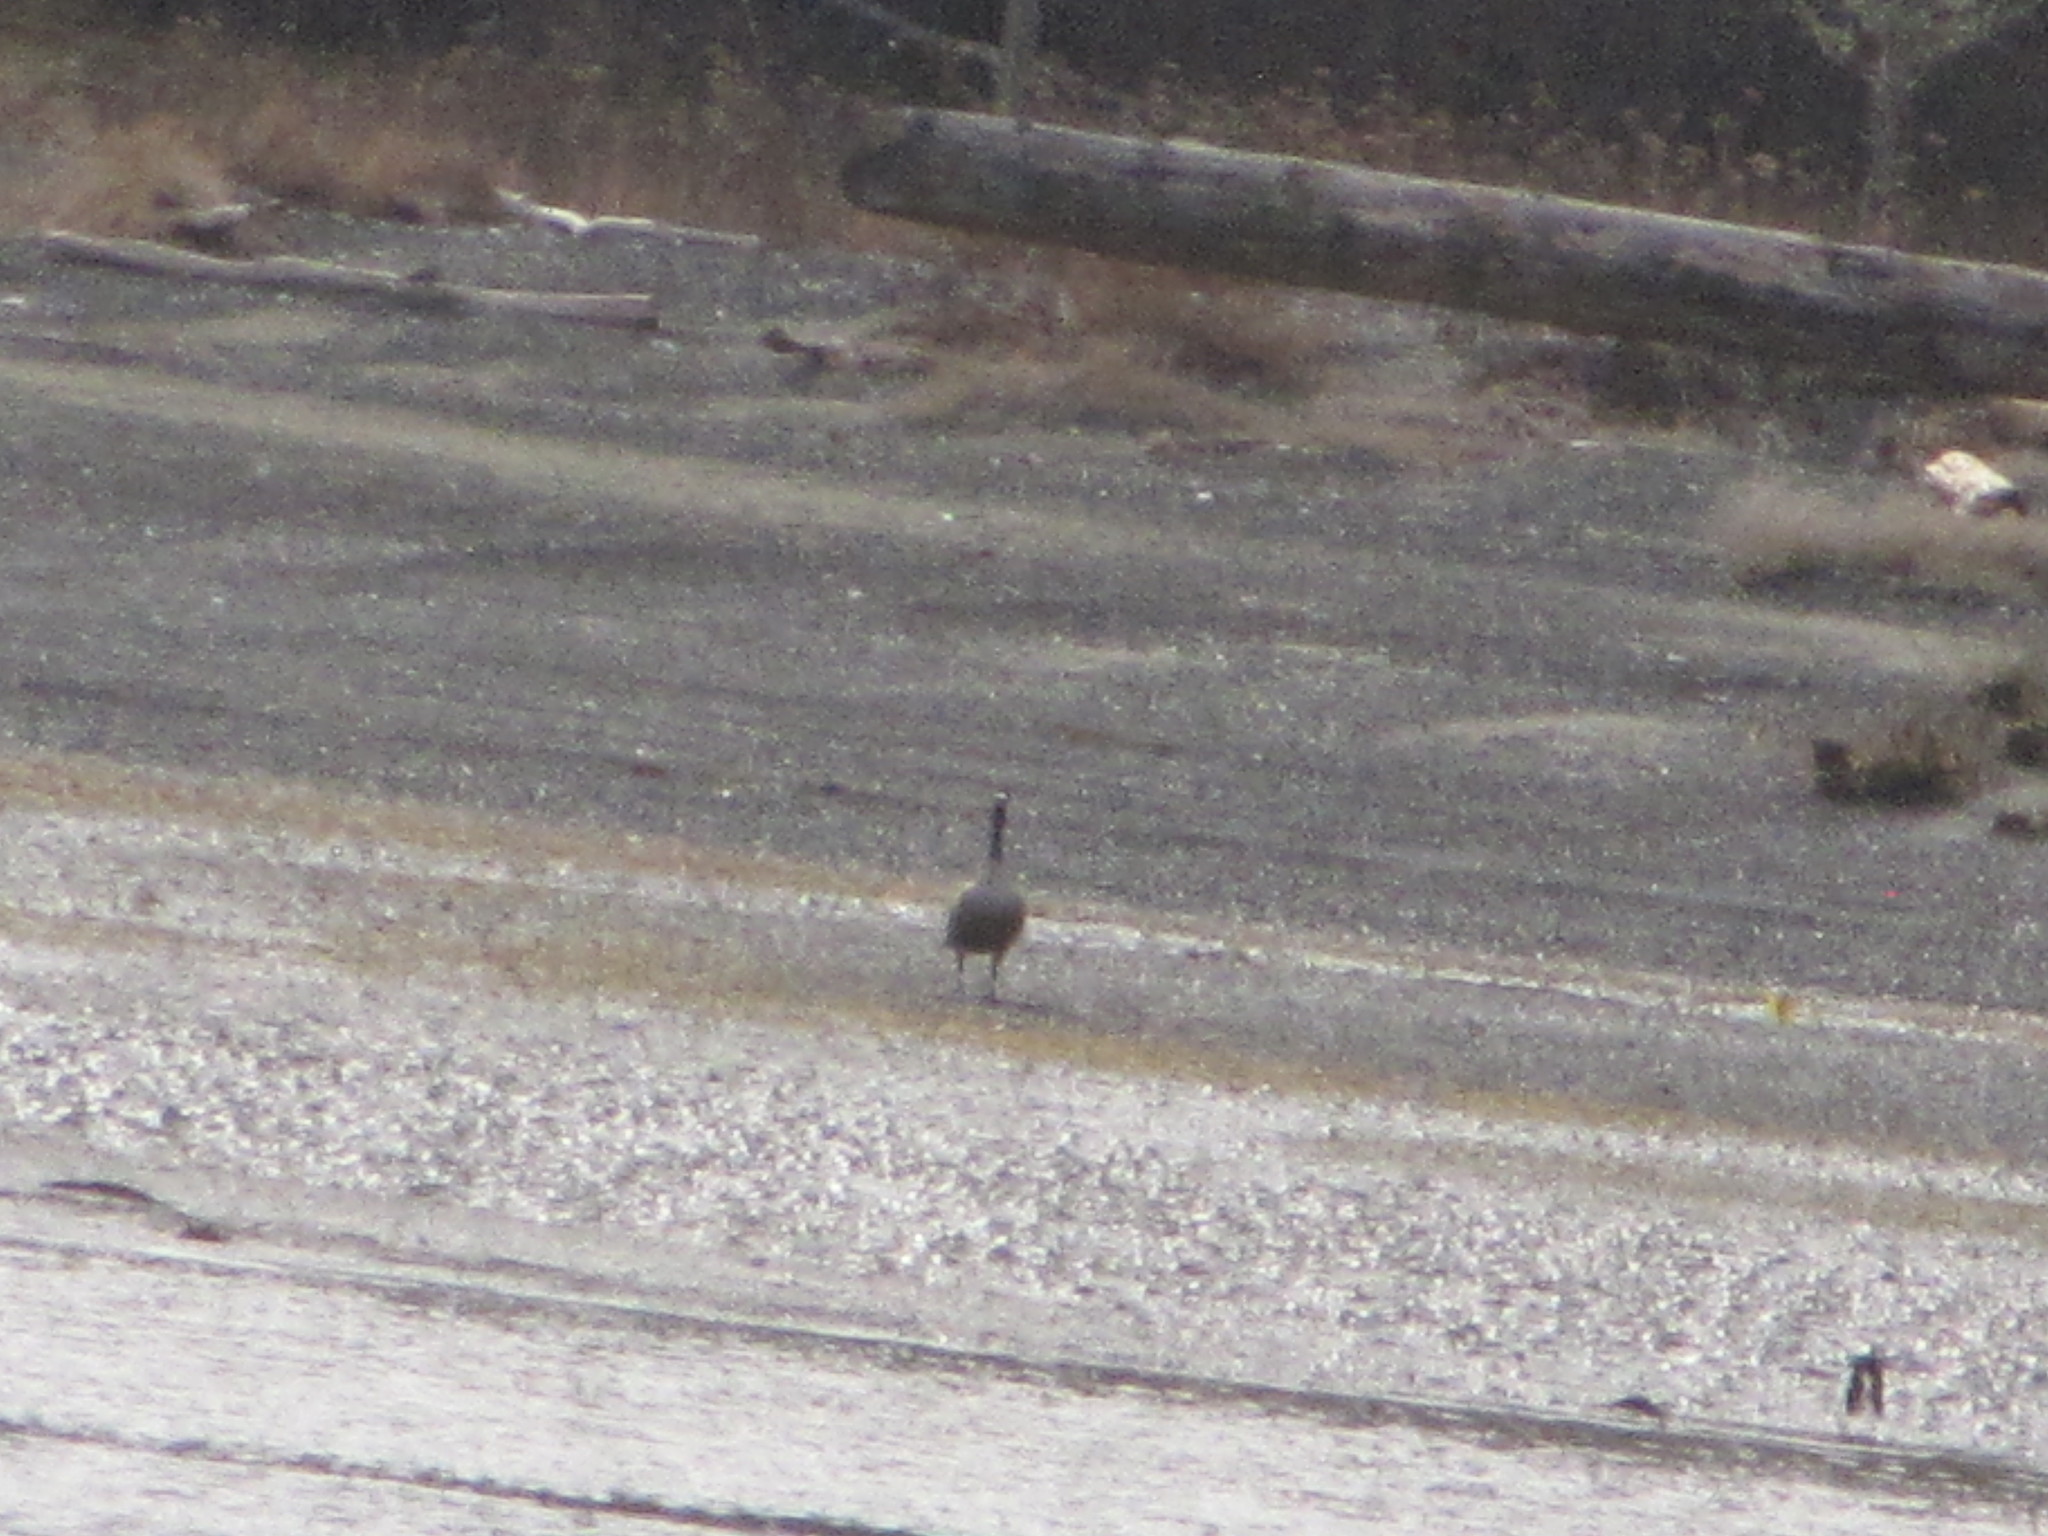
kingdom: Animalia
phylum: Chordata
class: Aves
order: Anseriformes
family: Anatidae
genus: Branta
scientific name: Branta canadensis
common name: Canada goose
